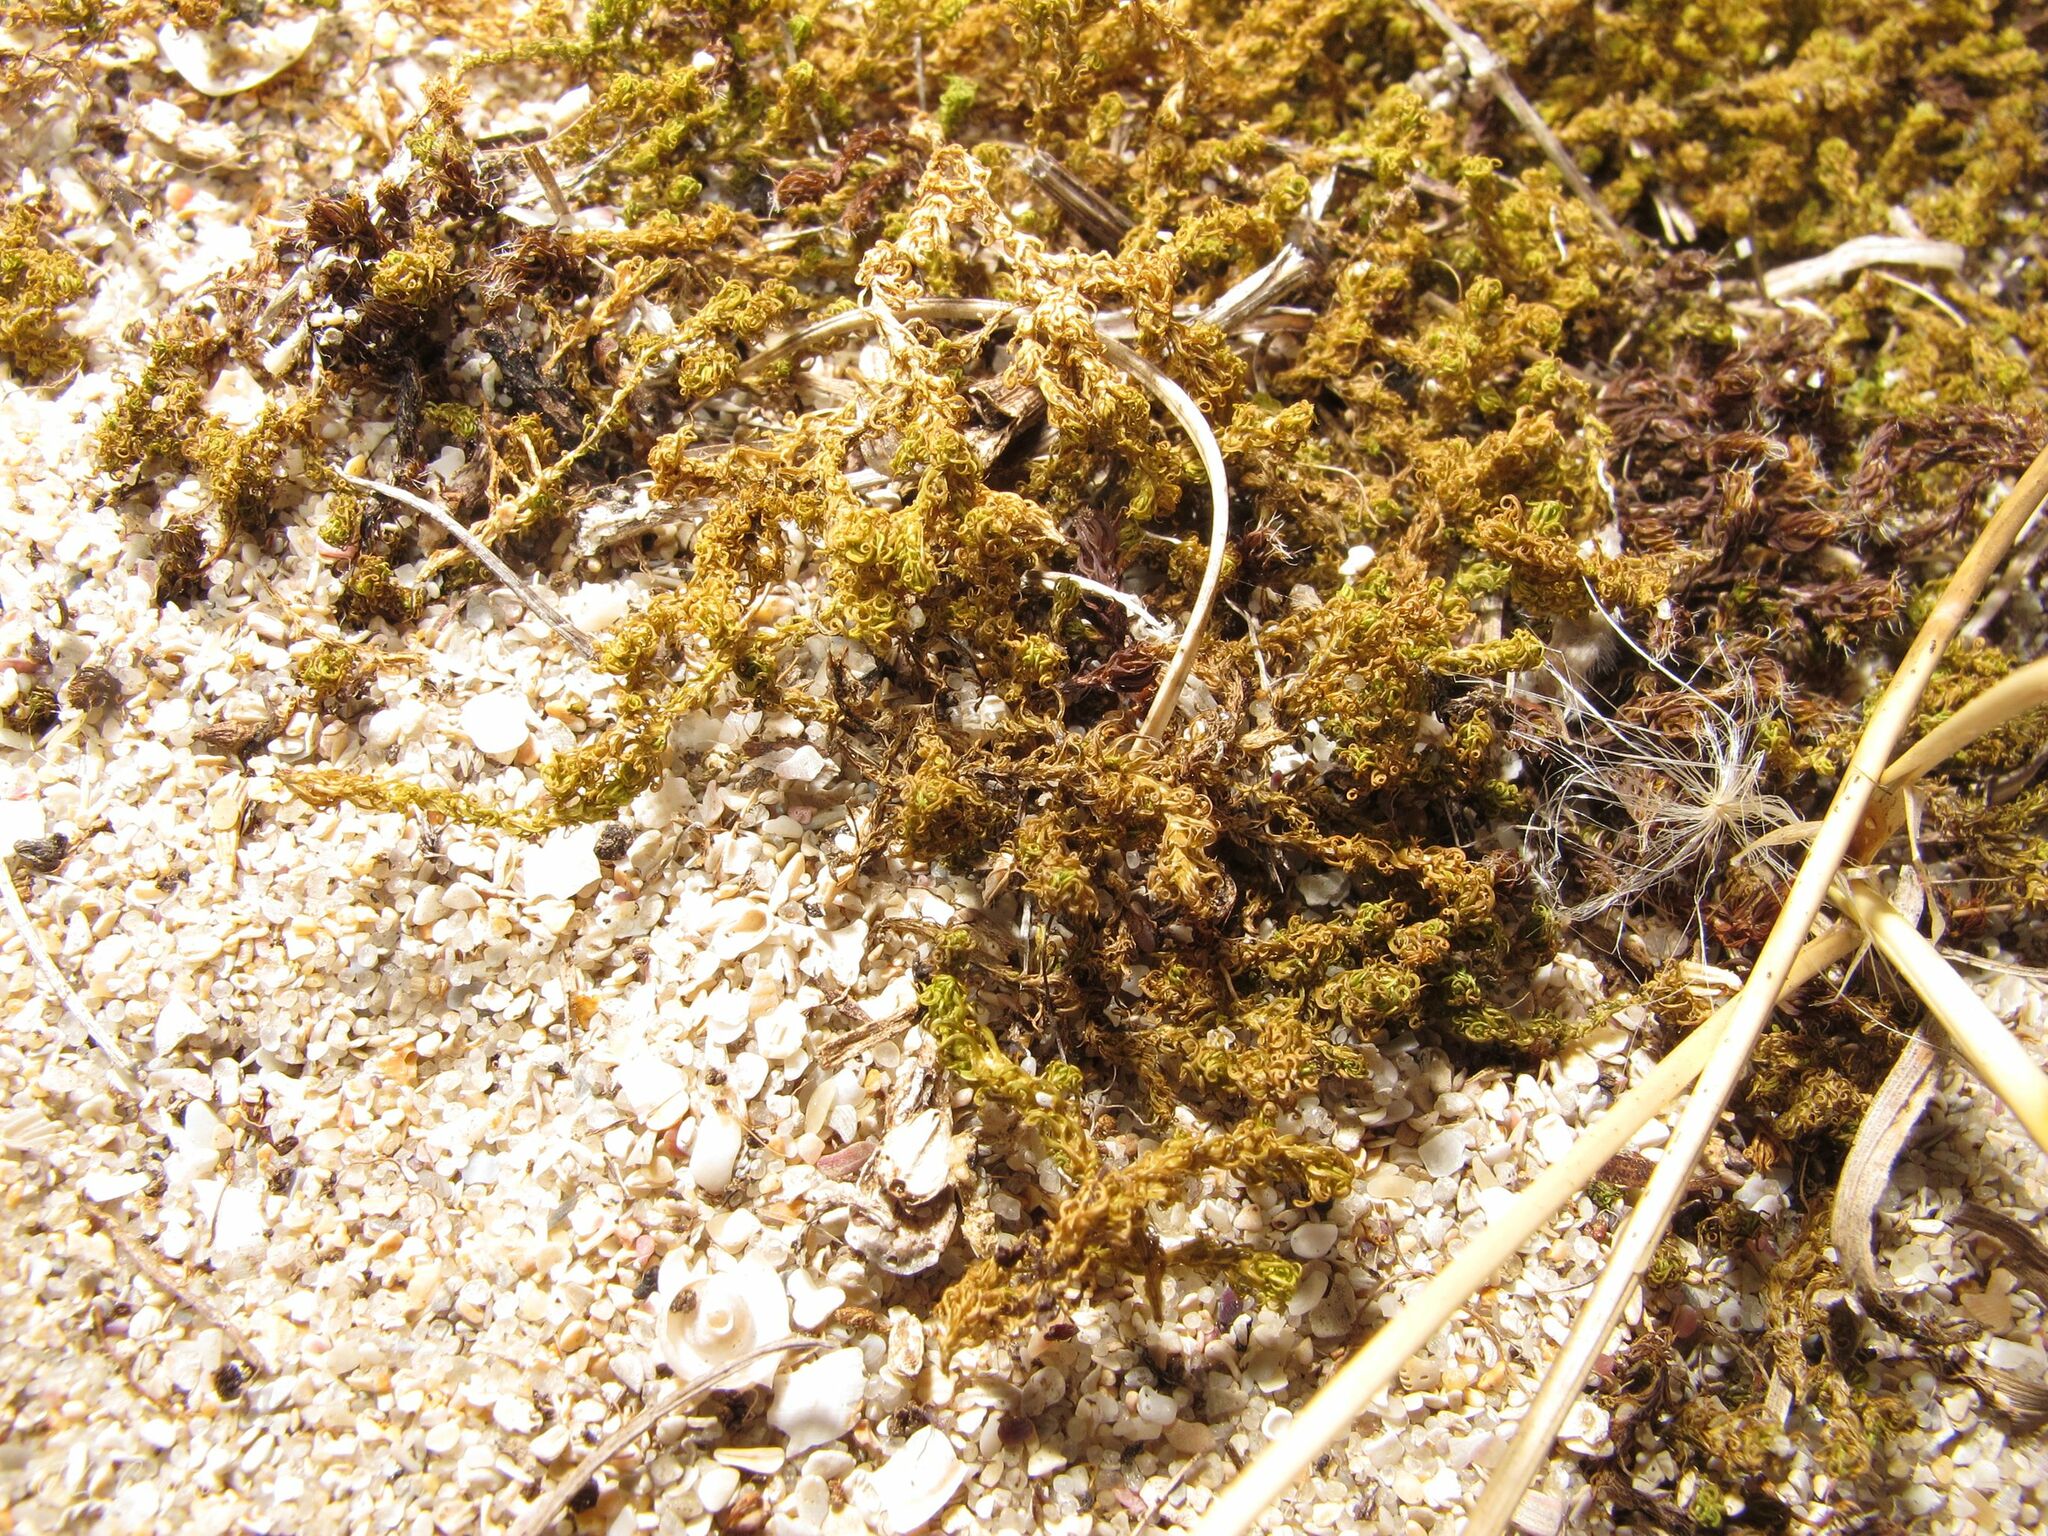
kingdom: Plantae
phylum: Bryophyta
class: Bryopsida
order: Pottiales
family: Pottiaceae
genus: Pleurochaete
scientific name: Pleurochaete squarrosa
